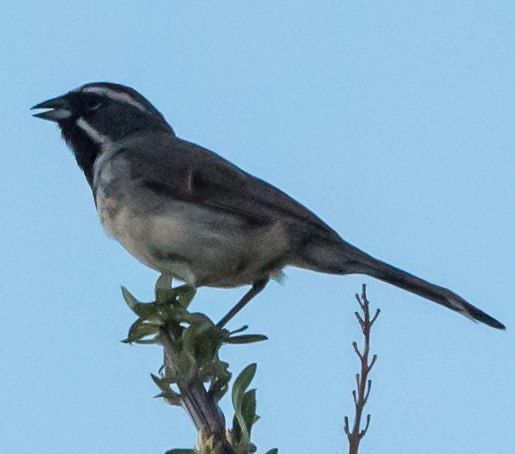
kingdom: Animalia
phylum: Chordata
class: Aves
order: Passeriformes
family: Passerellidae
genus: Amphispiza
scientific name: Amphispiza bilineata
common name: Black-throated sparrow
